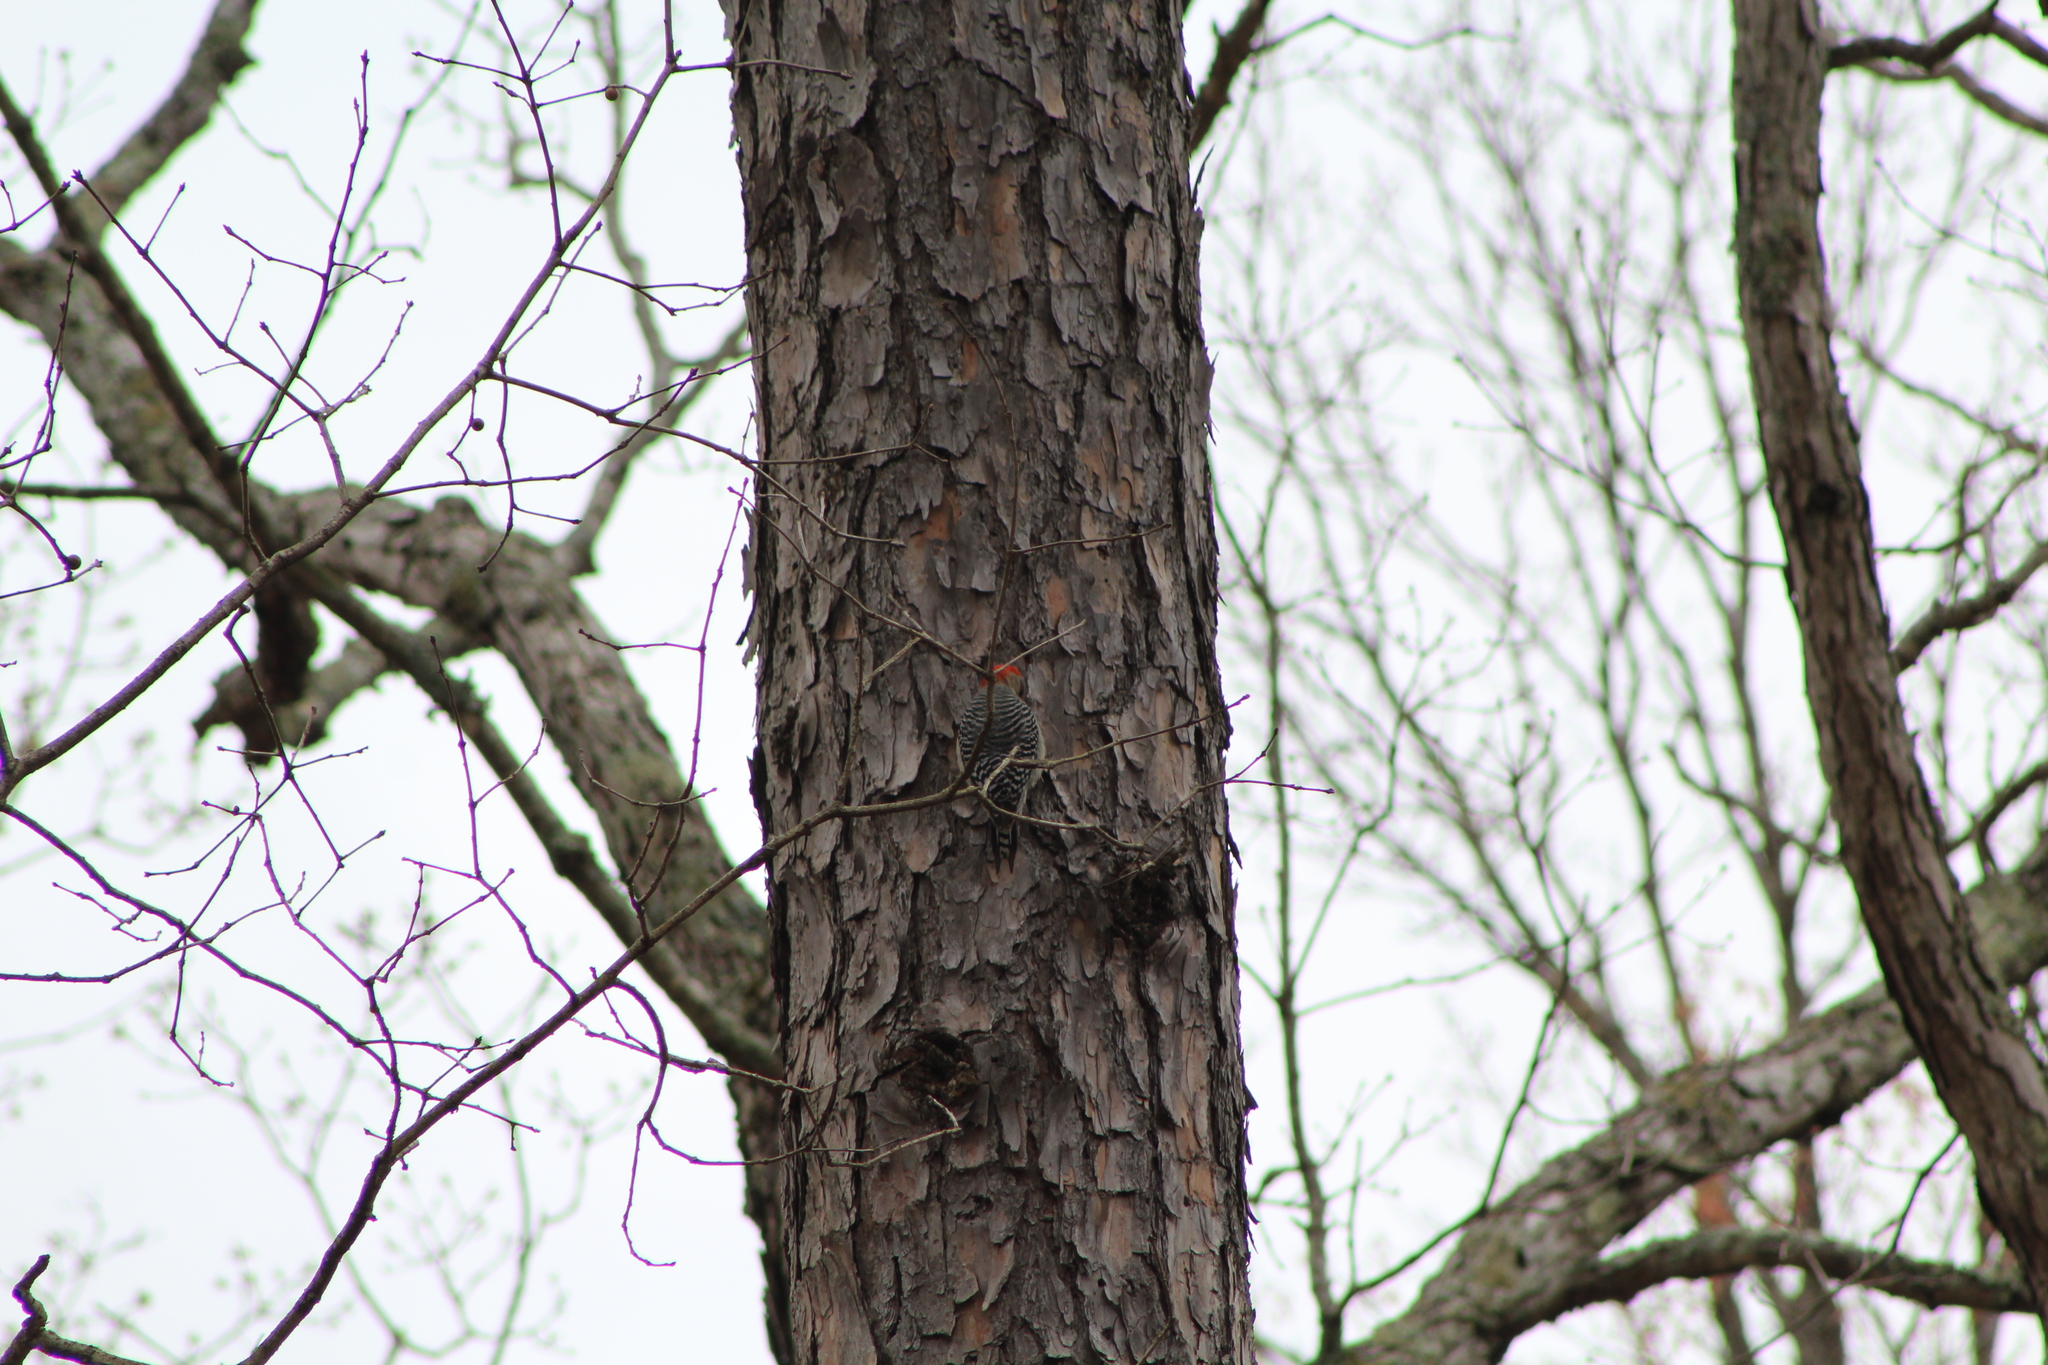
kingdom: Animalia
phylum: Chordata
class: Aves
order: Piciformes
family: Picidae
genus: Melanerpes
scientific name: Melanerpes carolinus
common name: Red-bellied woodpecker
